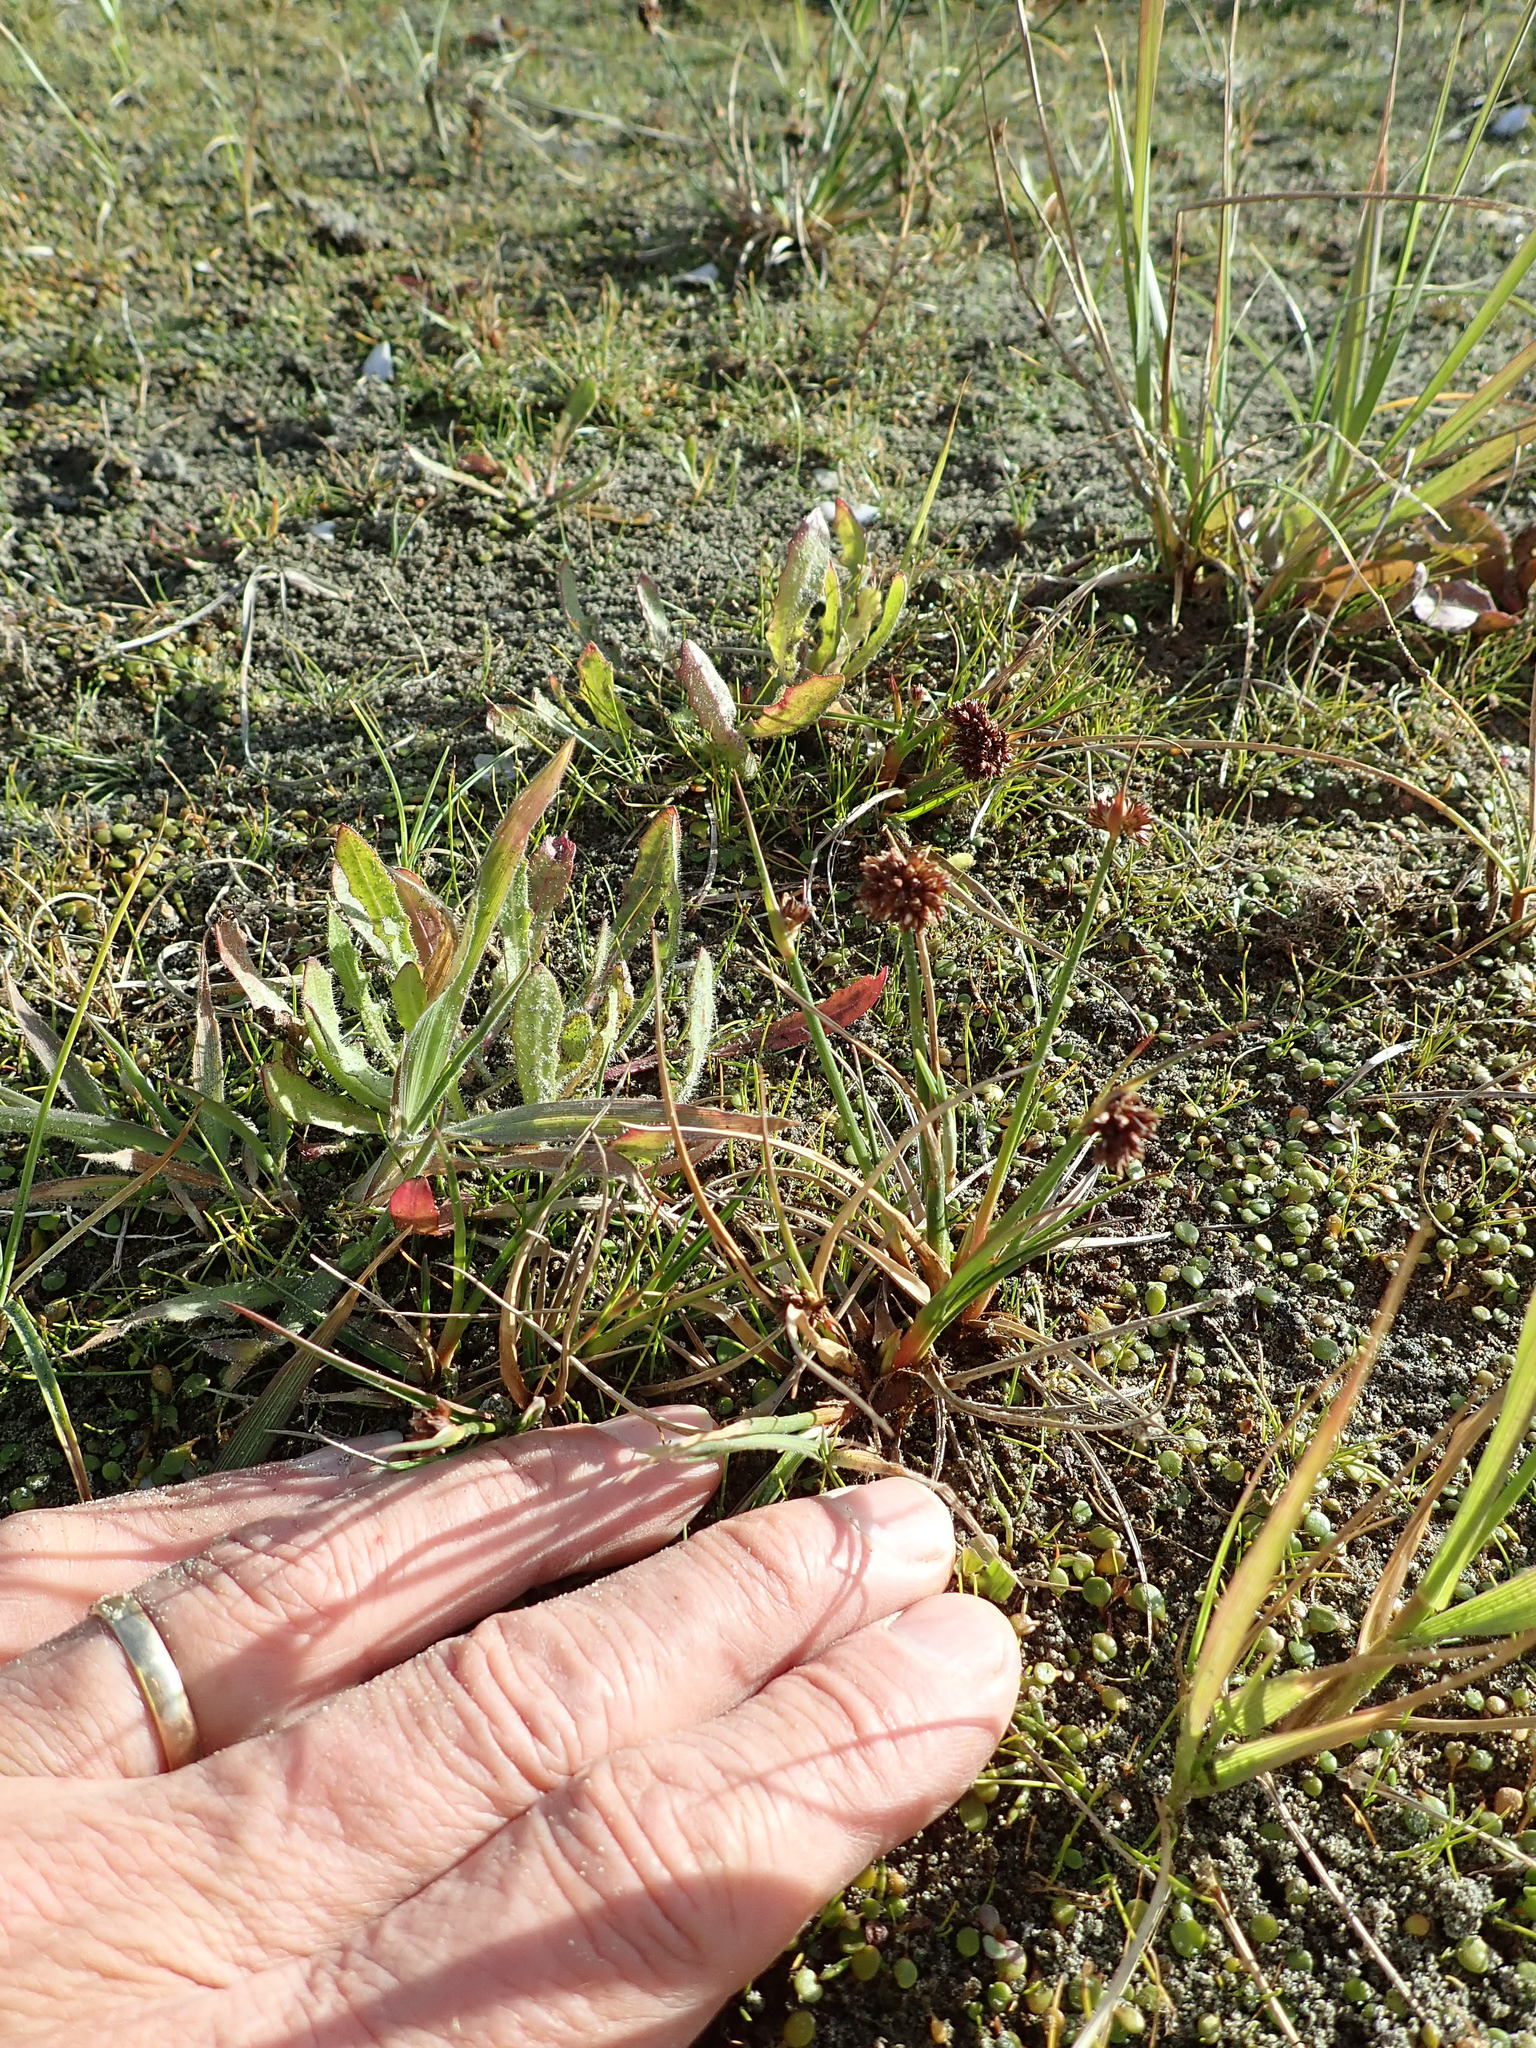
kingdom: Plantae
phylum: Tracheophyta
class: Liliopsida
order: Poales
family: Juncaceae
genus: Juncus
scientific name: Juncus caespiticius
